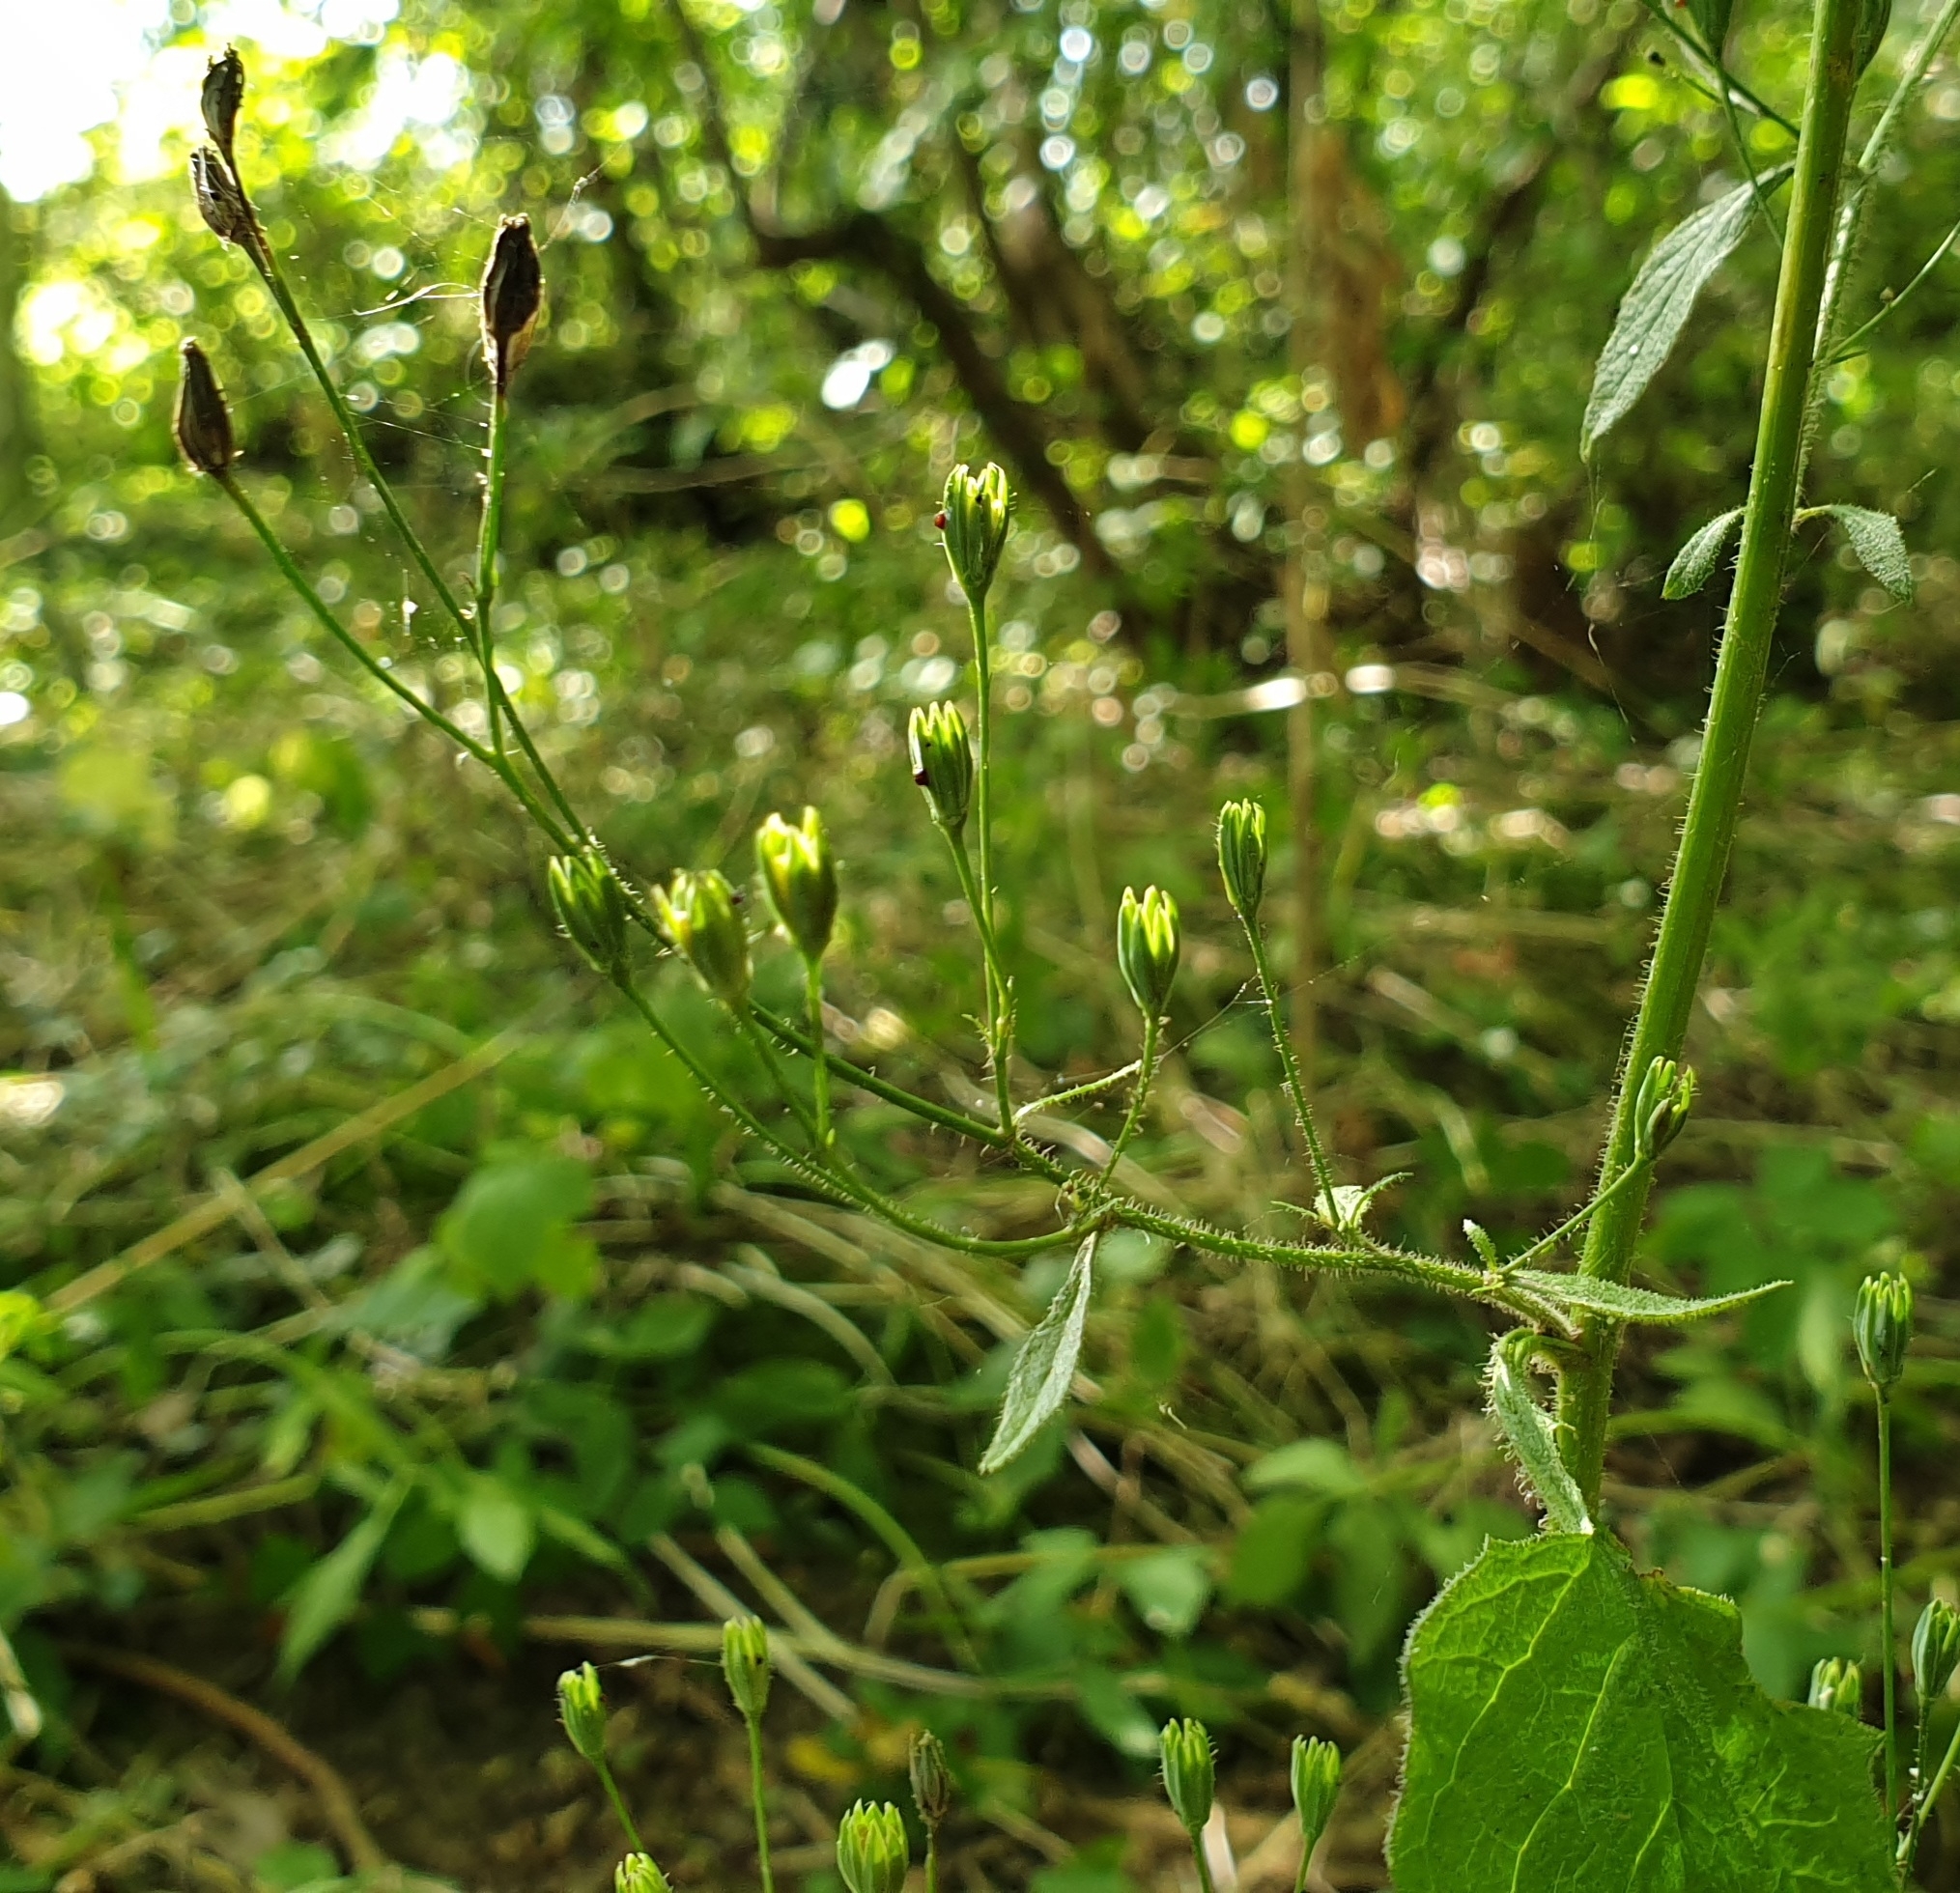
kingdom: Plantae
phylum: Tracheophyta
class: Magnoliopsida
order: Asterales
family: Asteraceae
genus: Lapsana
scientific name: Lapsana communis
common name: Nipplewort
